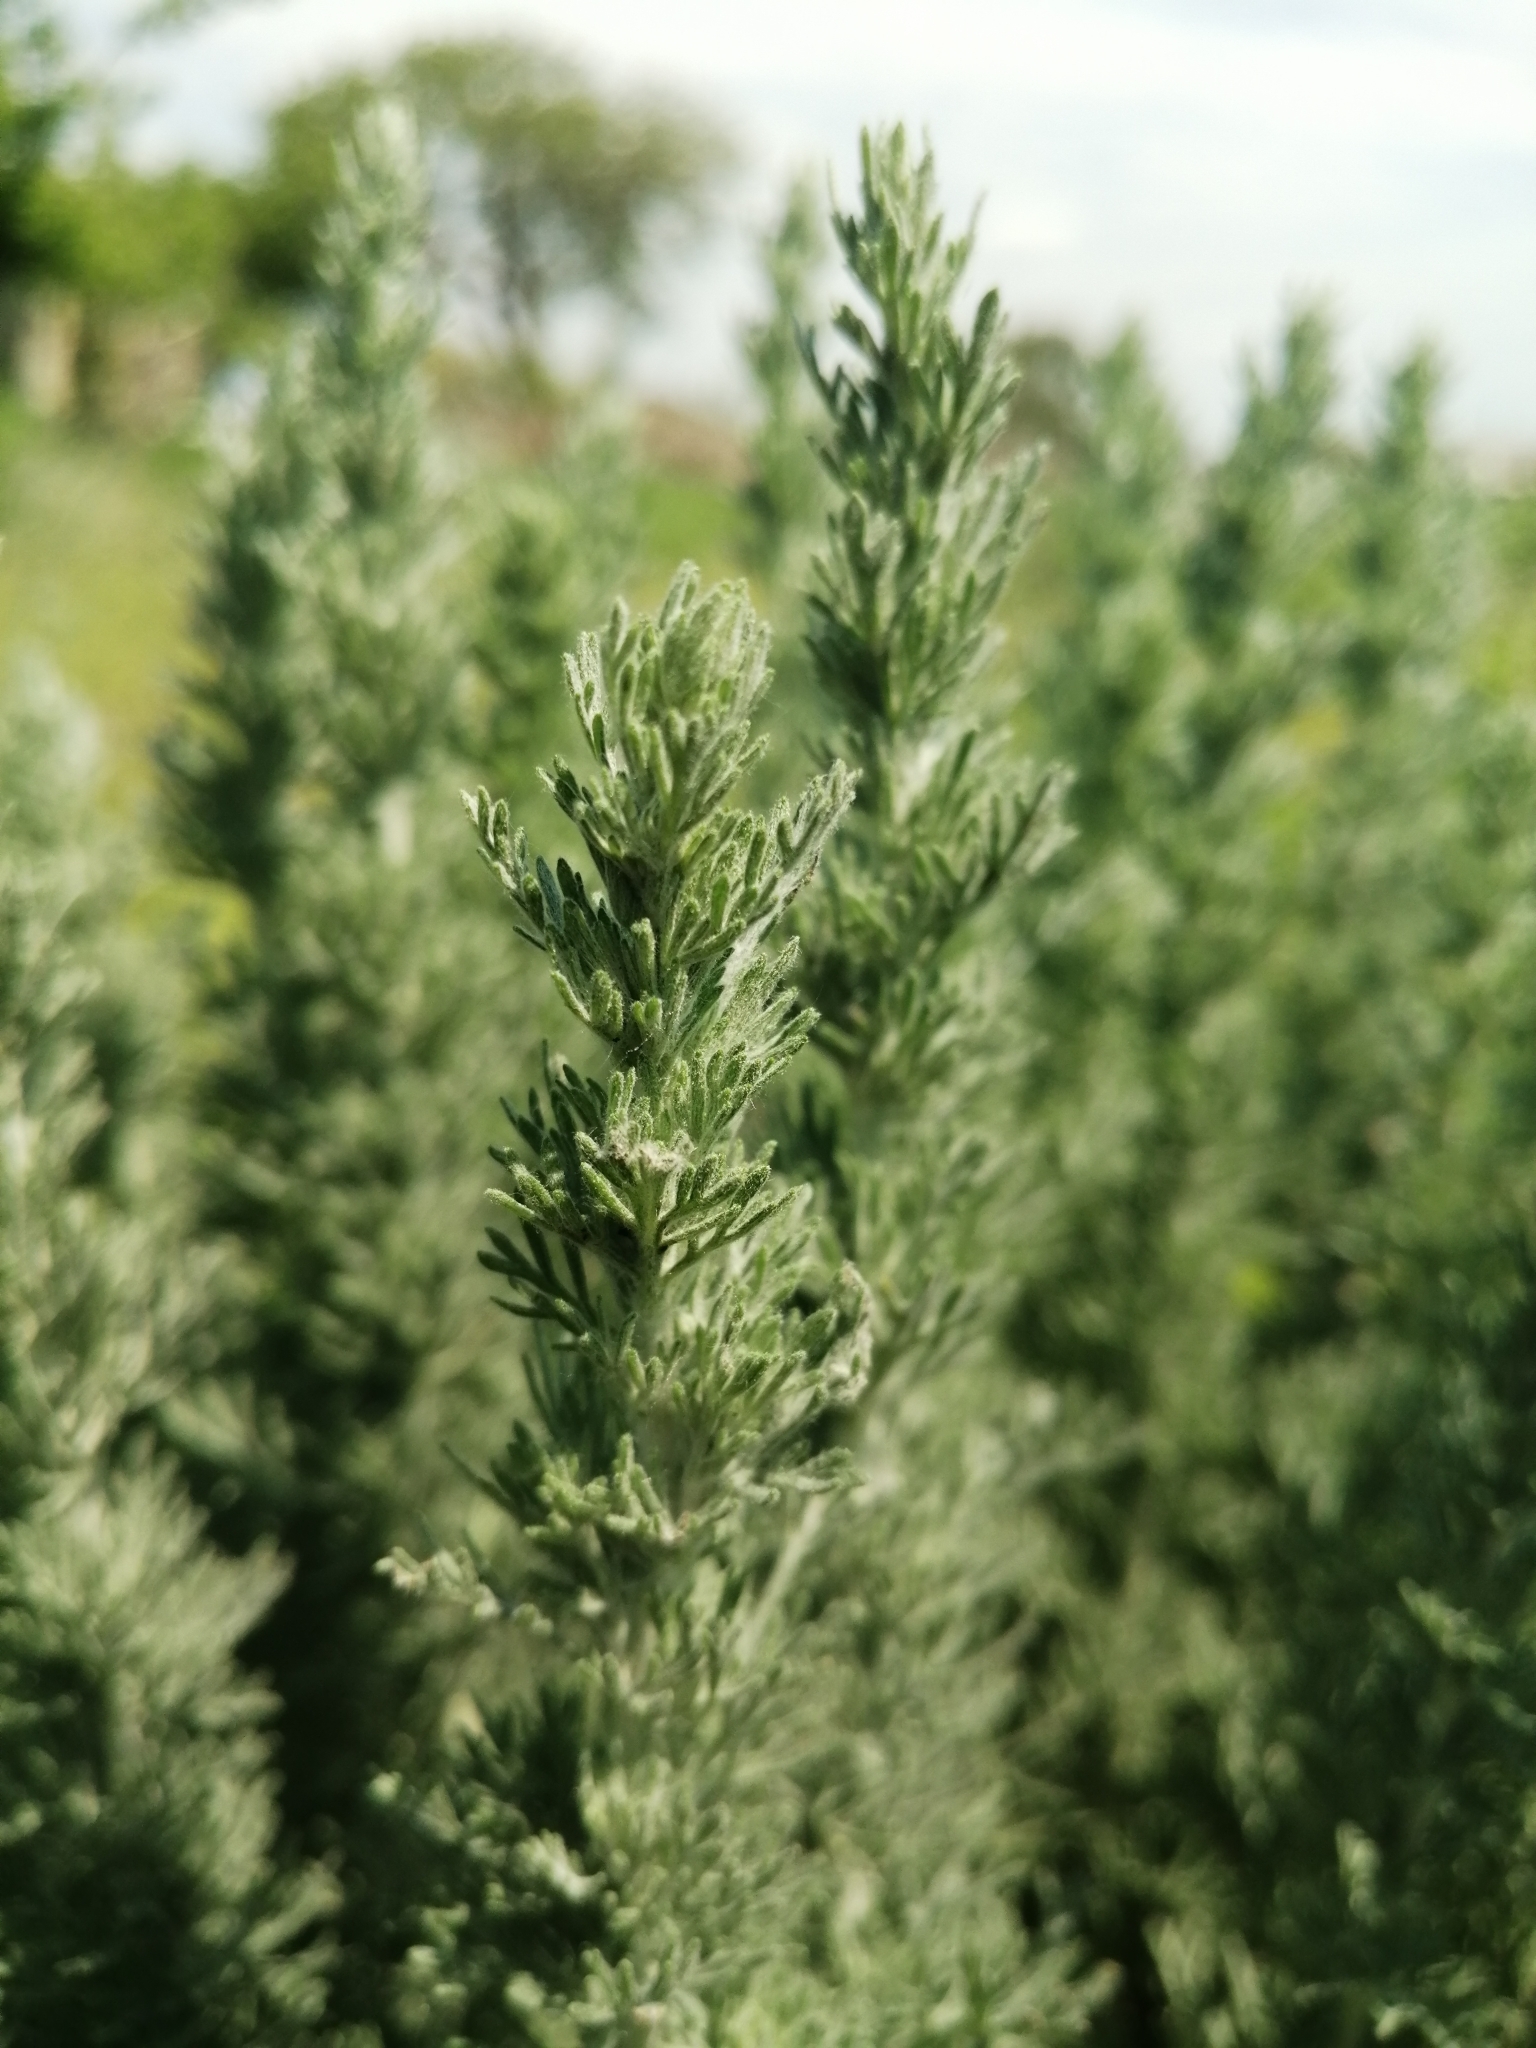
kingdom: Plantae
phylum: Tracheophyta
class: Magnoliopsida
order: Asterales
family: Asteraceae
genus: Artemisia
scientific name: Artemisia austriaca
